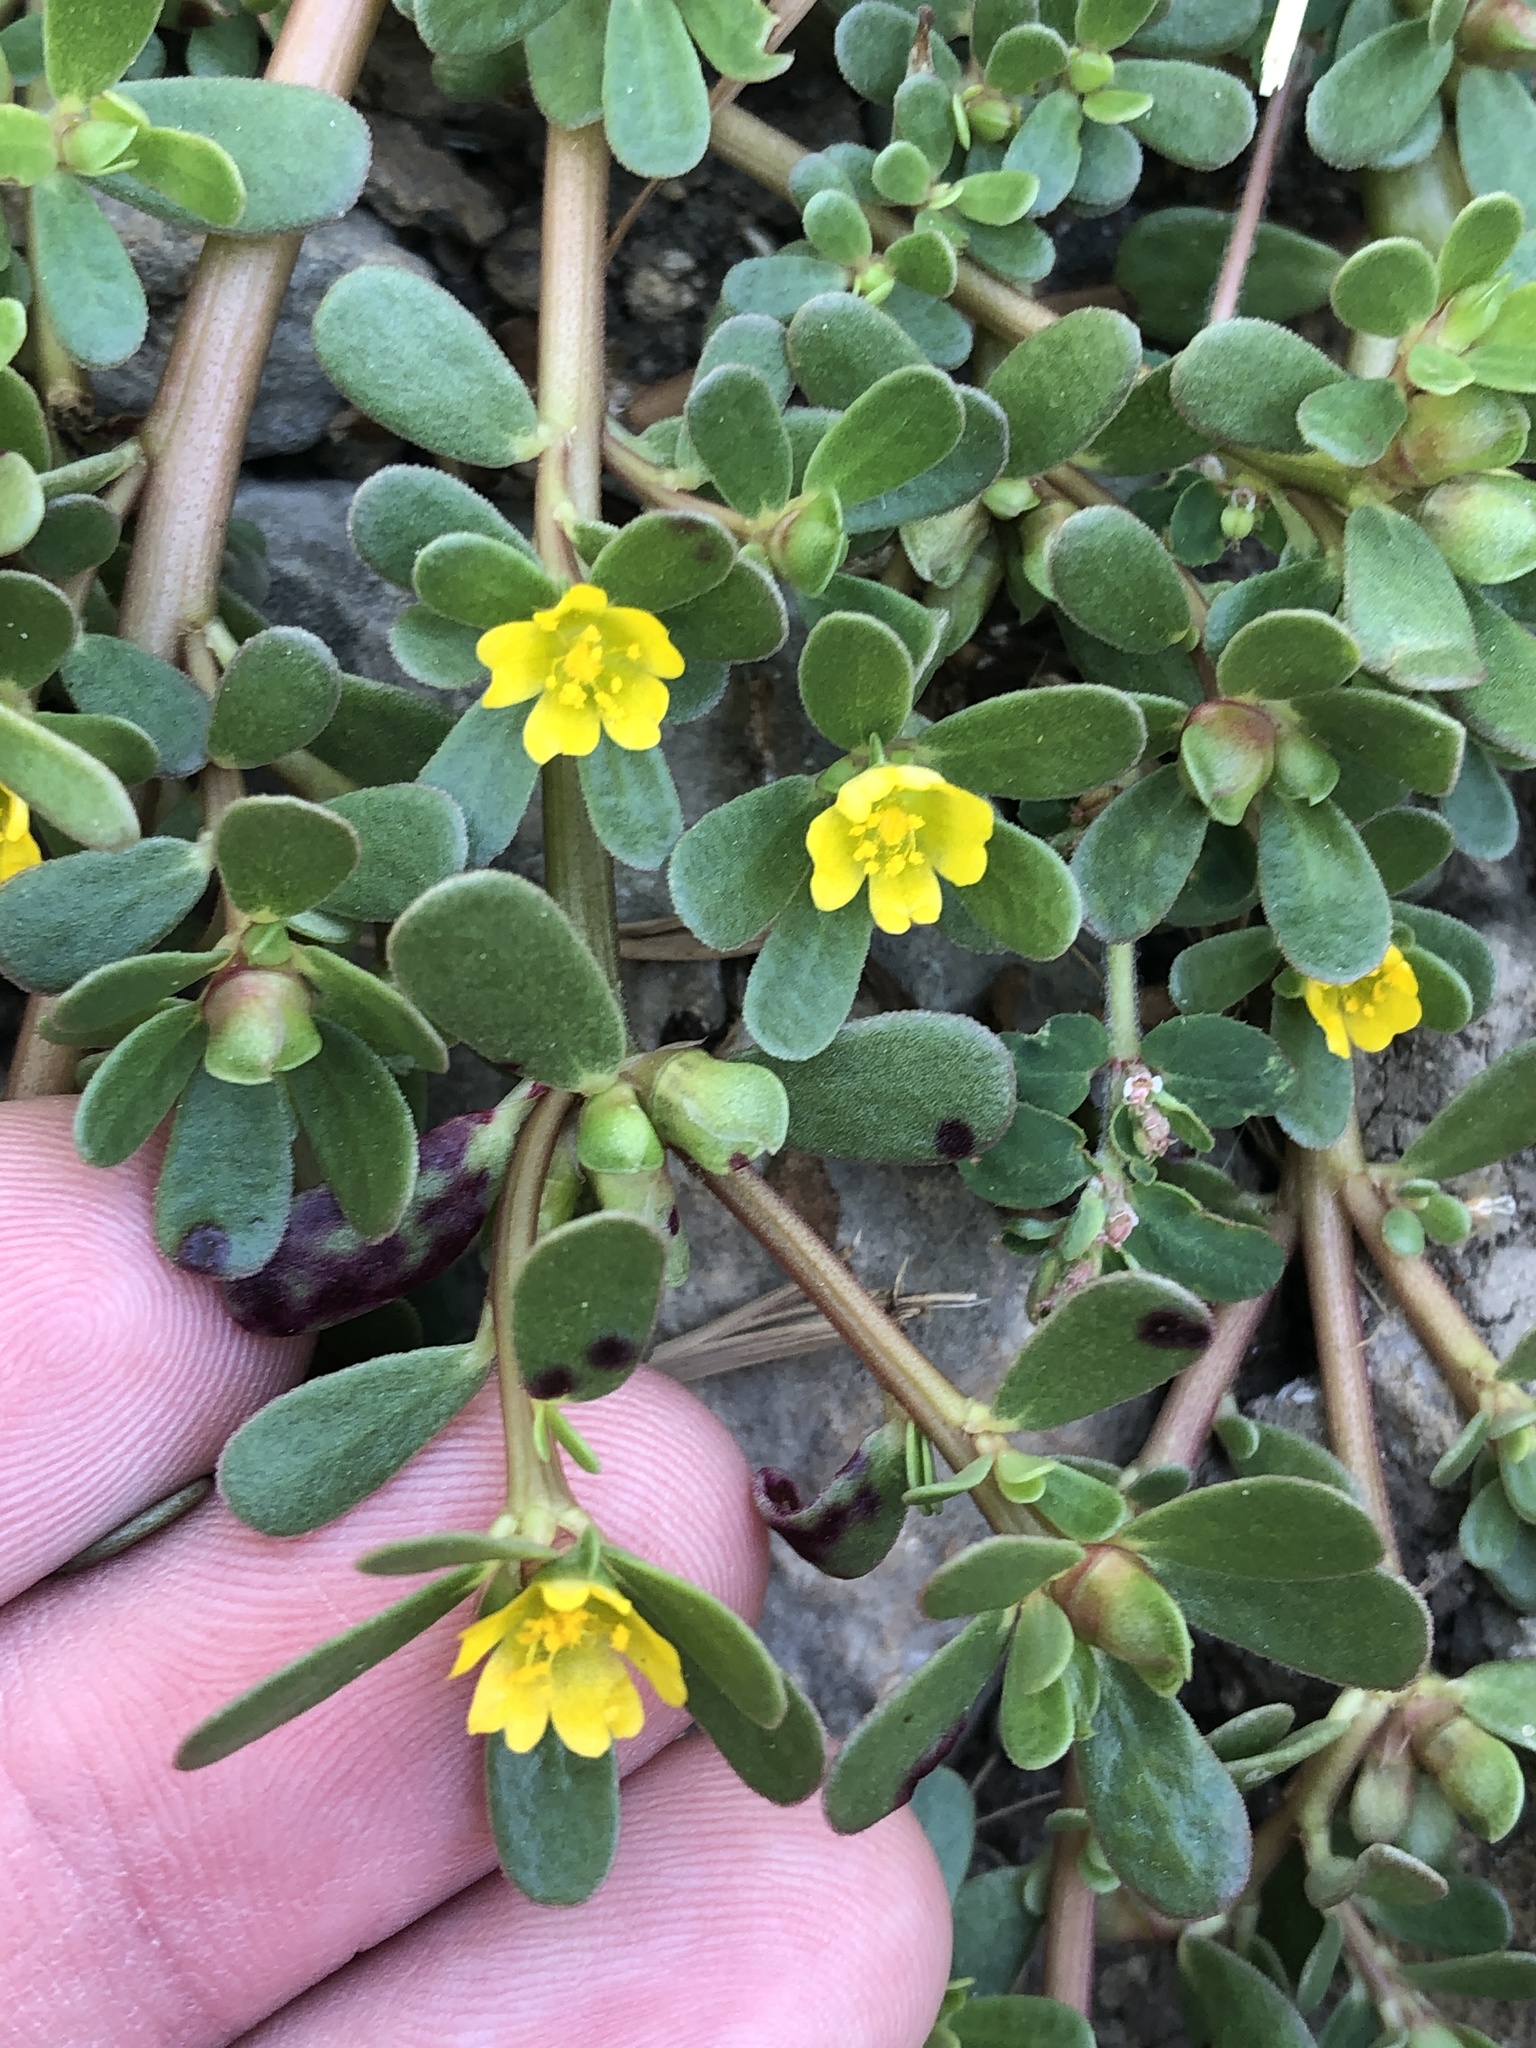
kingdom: Plantae
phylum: Tracheophyta
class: Magnoliopsida
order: Caryophyllales
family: Portulacaceae
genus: Portulaca
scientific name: Portulaca oleracea
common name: Common purslane
